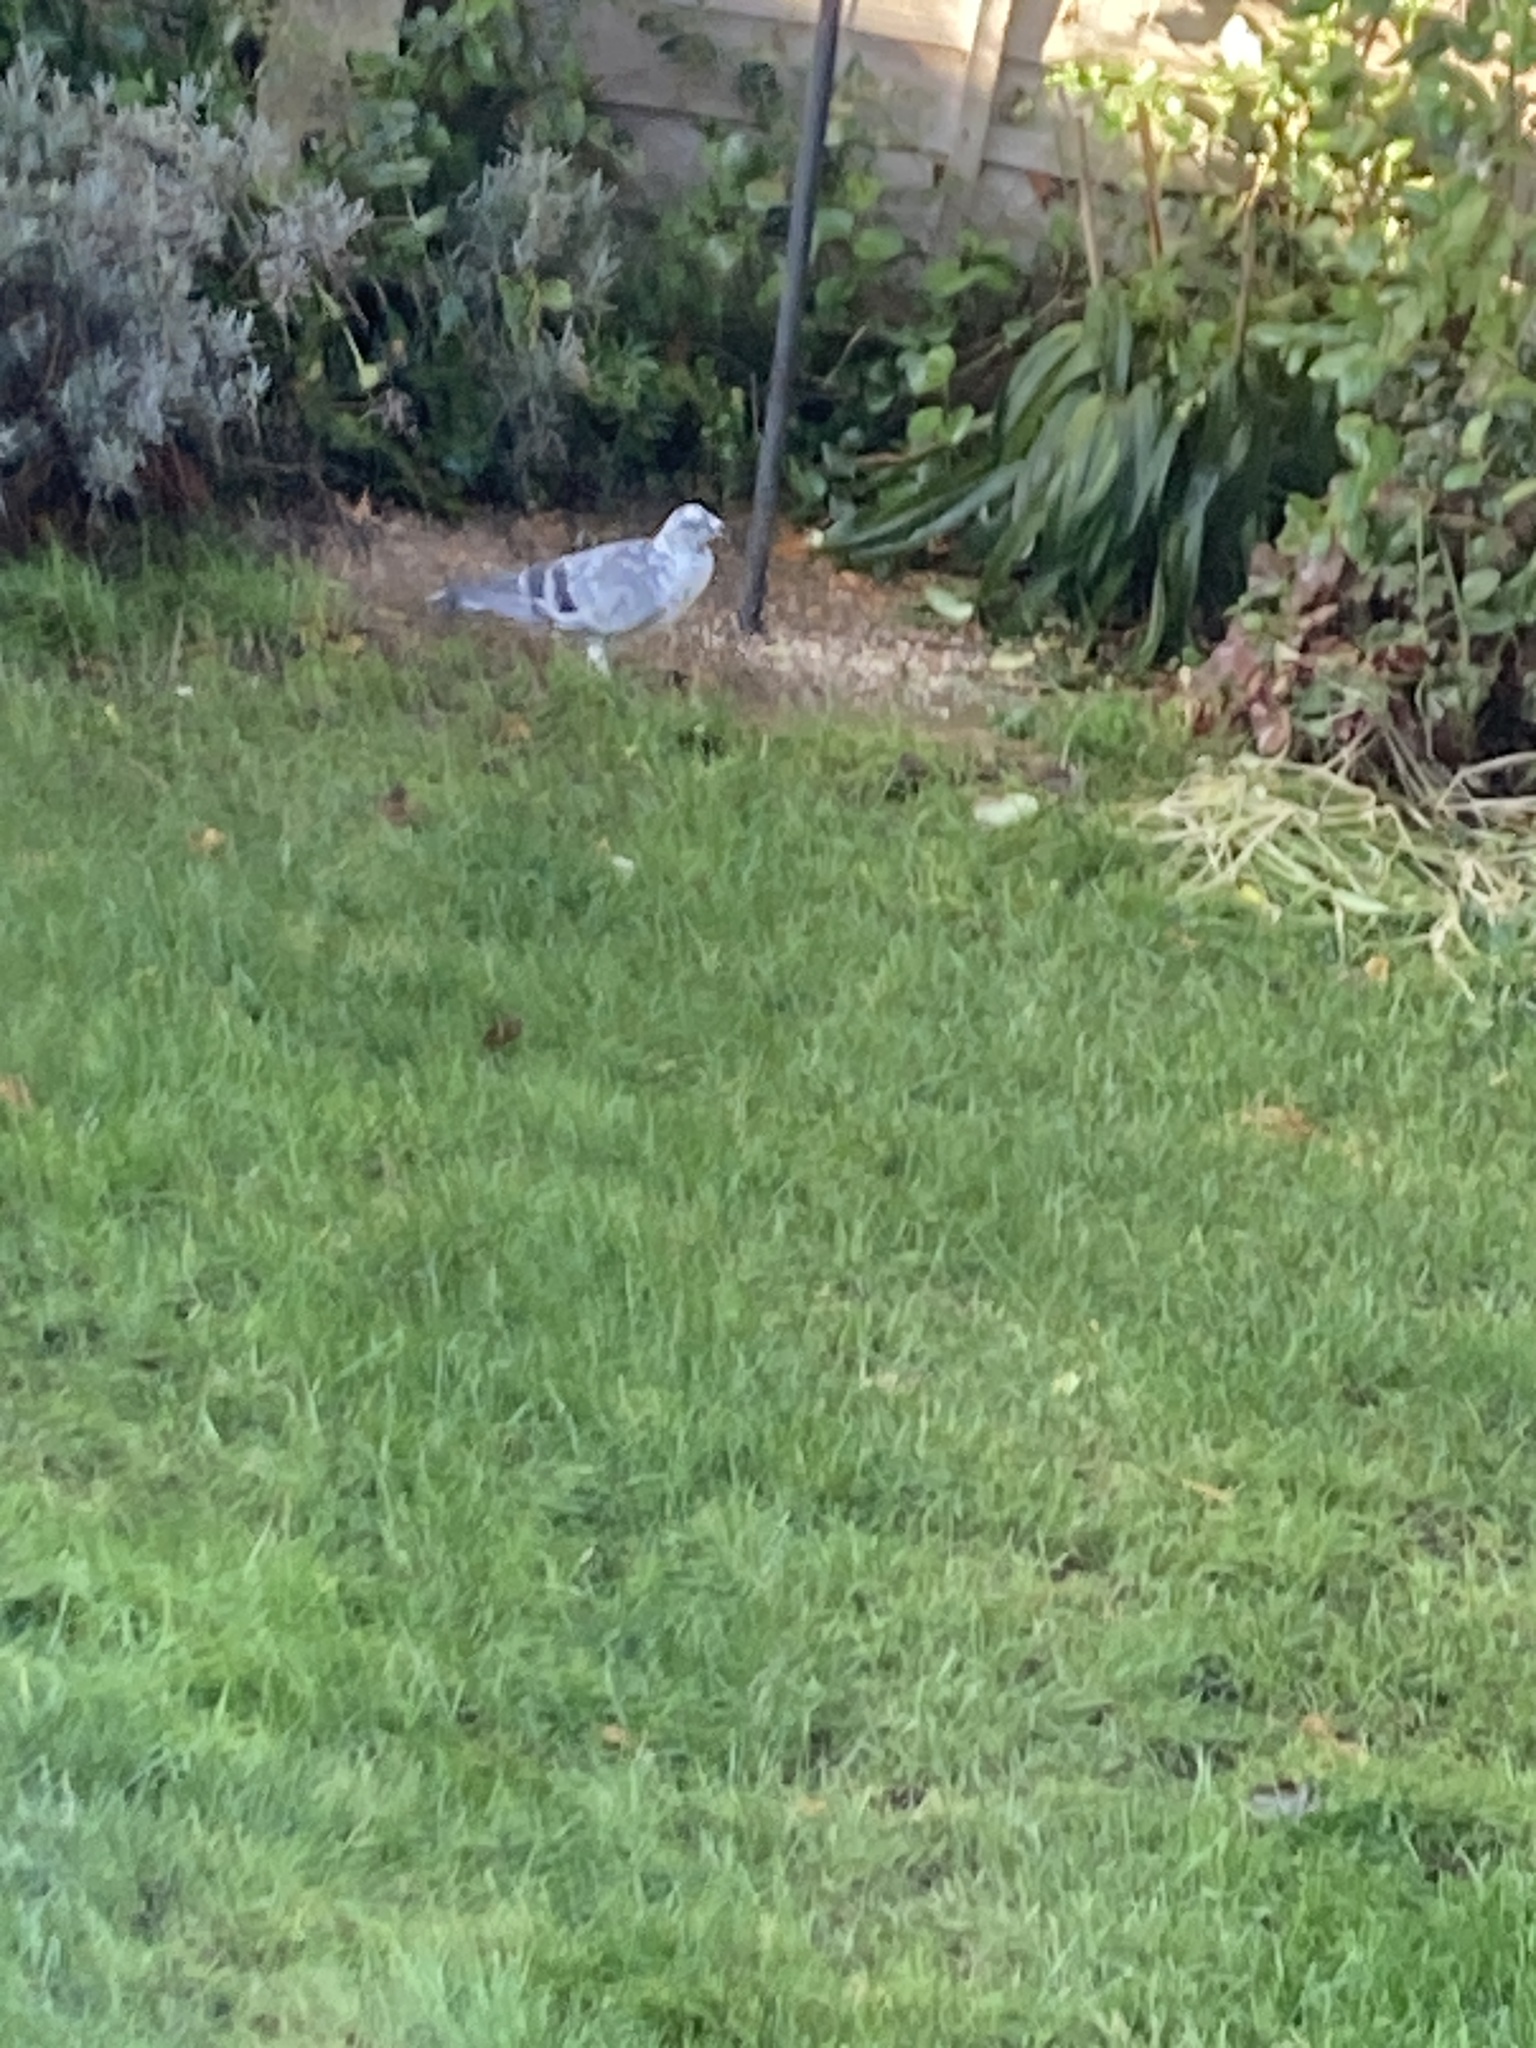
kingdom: Animalia
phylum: Chordata
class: Aves
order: Columbiformes
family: Columbidae
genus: Columba
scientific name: Columba livia
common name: Rock pigeon
